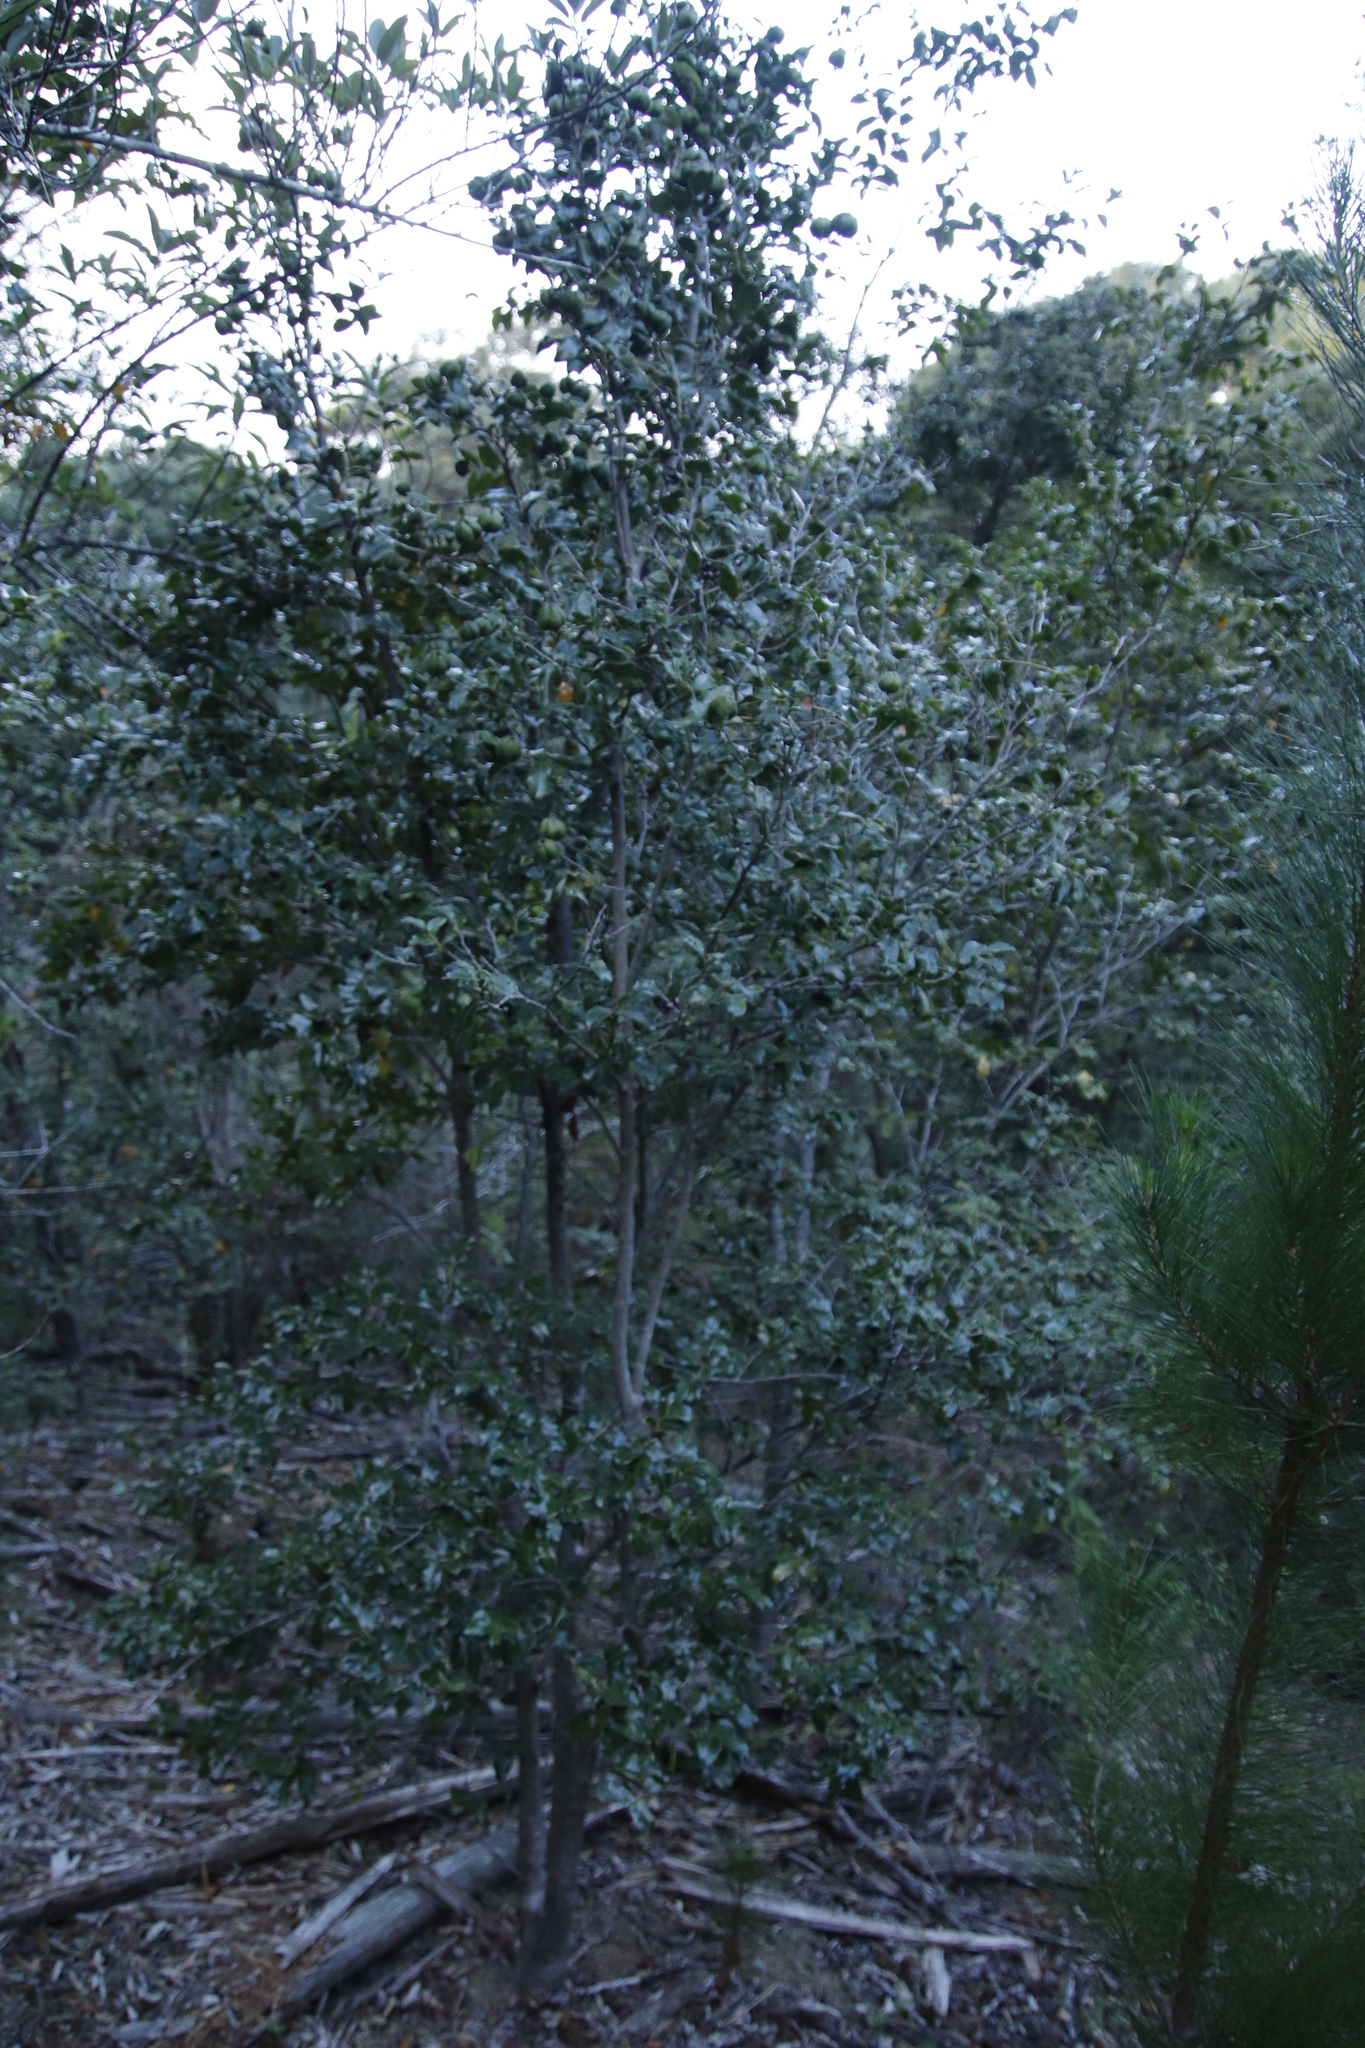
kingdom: Plantae
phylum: Tracheophyta
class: Magnoliopsida
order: Ericales
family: Ebenaceae
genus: Diospyros
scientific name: Diospyros whyteana
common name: Bladder-nut
